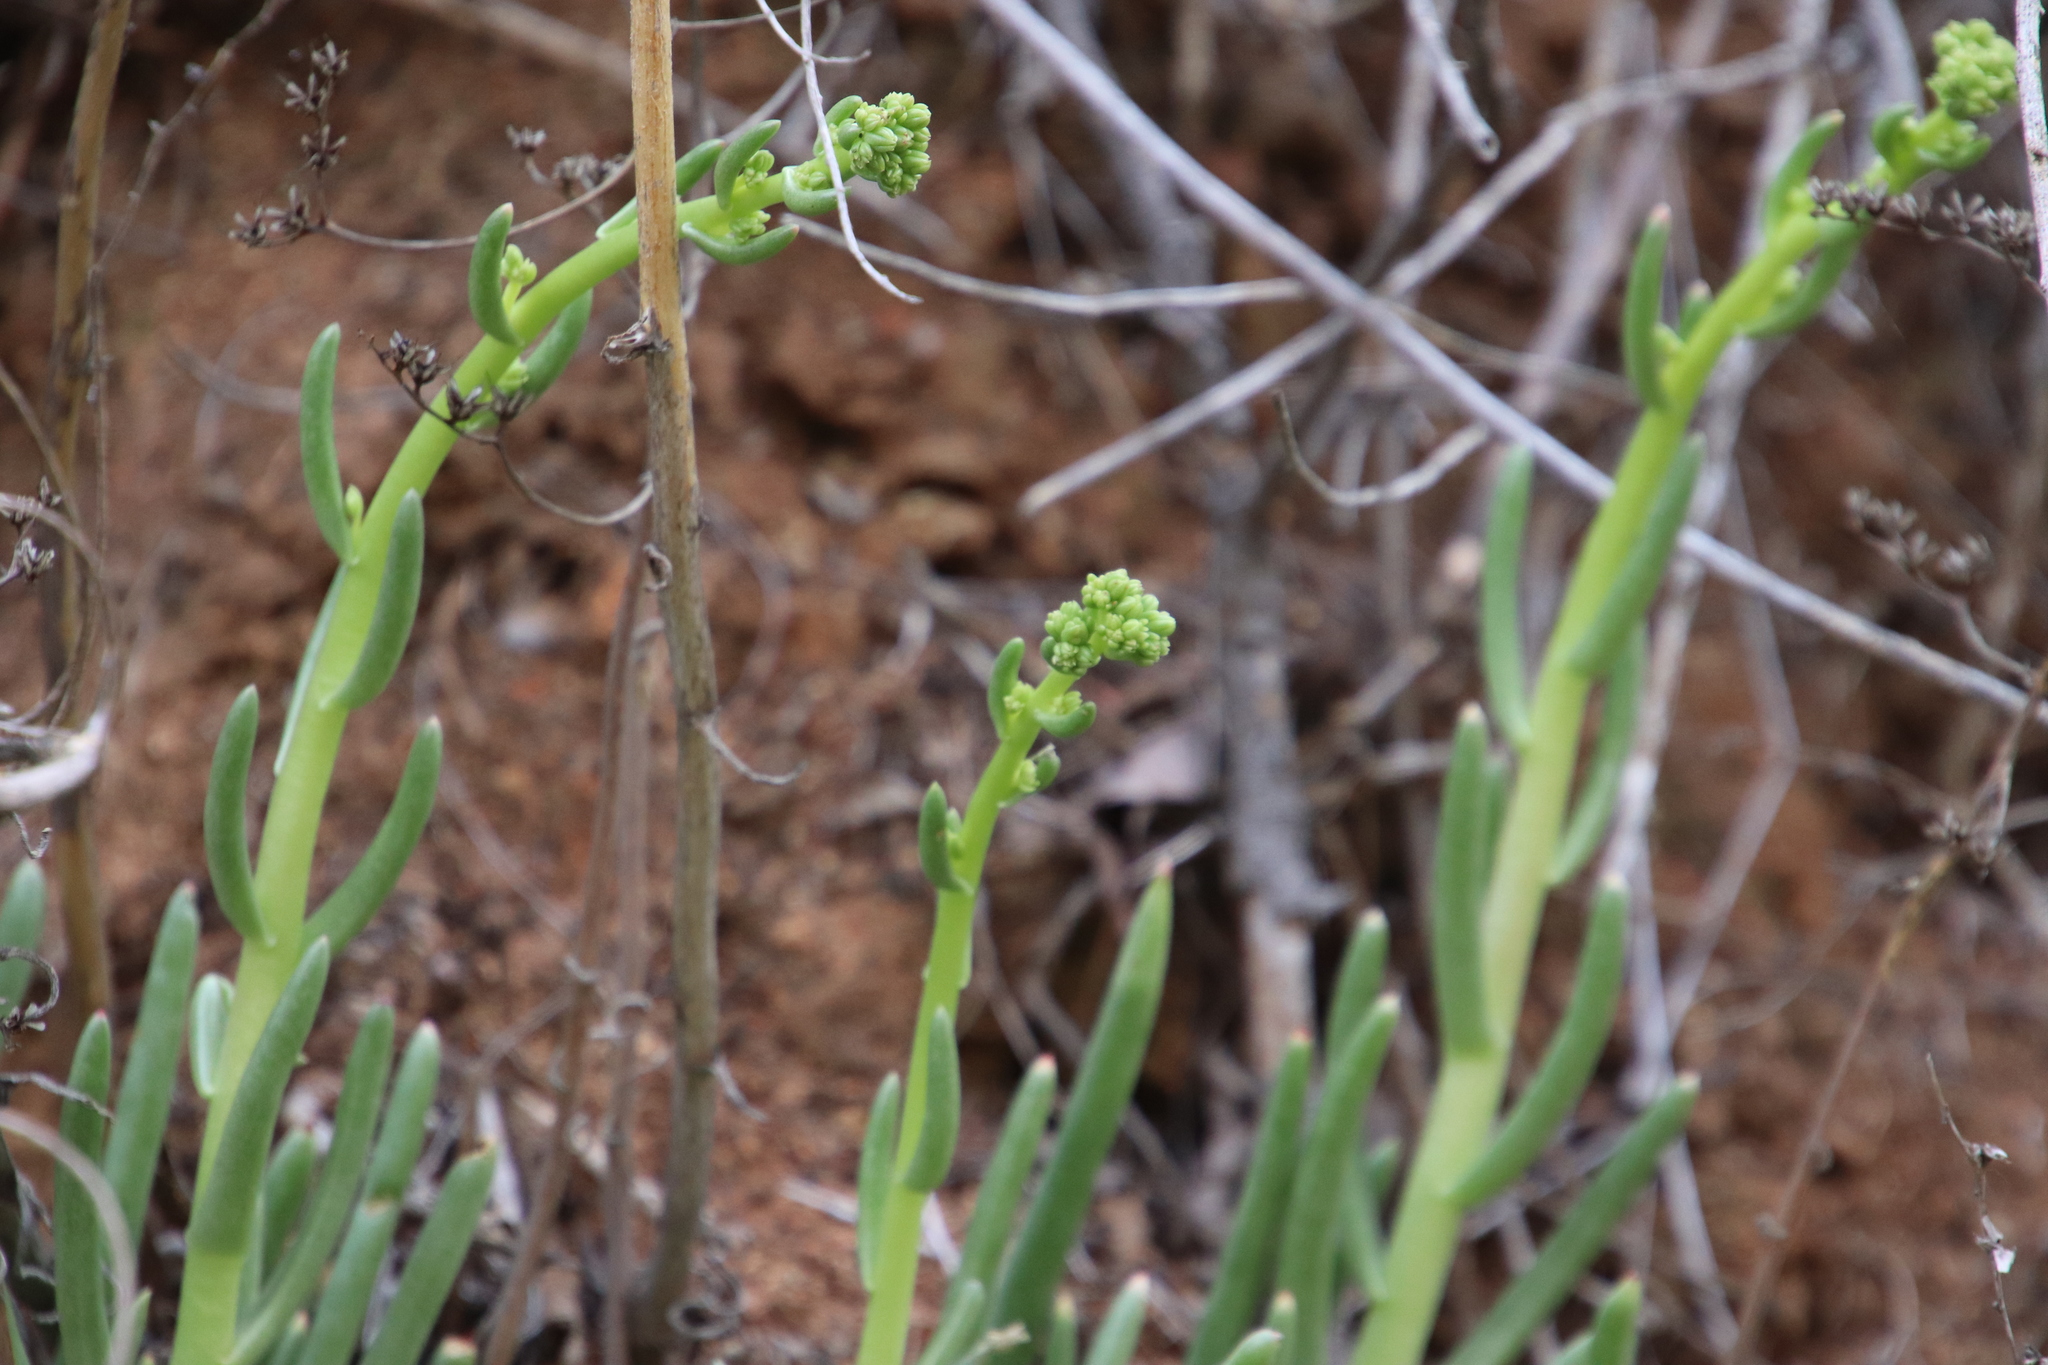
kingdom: Plantae
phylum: Tracheophyta
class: Magnoliopsida
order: Saxifragales
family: Crassulaceae
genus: Dudleya
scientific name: Dudleya edulis
